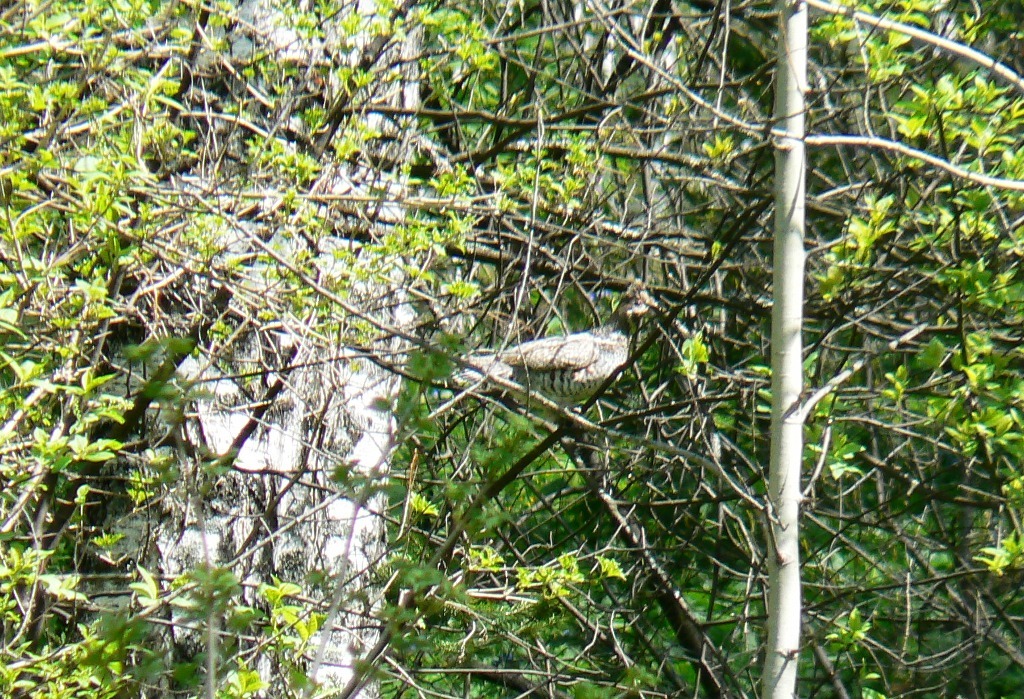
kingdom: Animalia
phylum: Chordata
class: Aves
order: Galliformes
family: Phasianidae
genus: Tetrastes
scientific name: Tetrastes bonasia
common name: Hazel grouse
